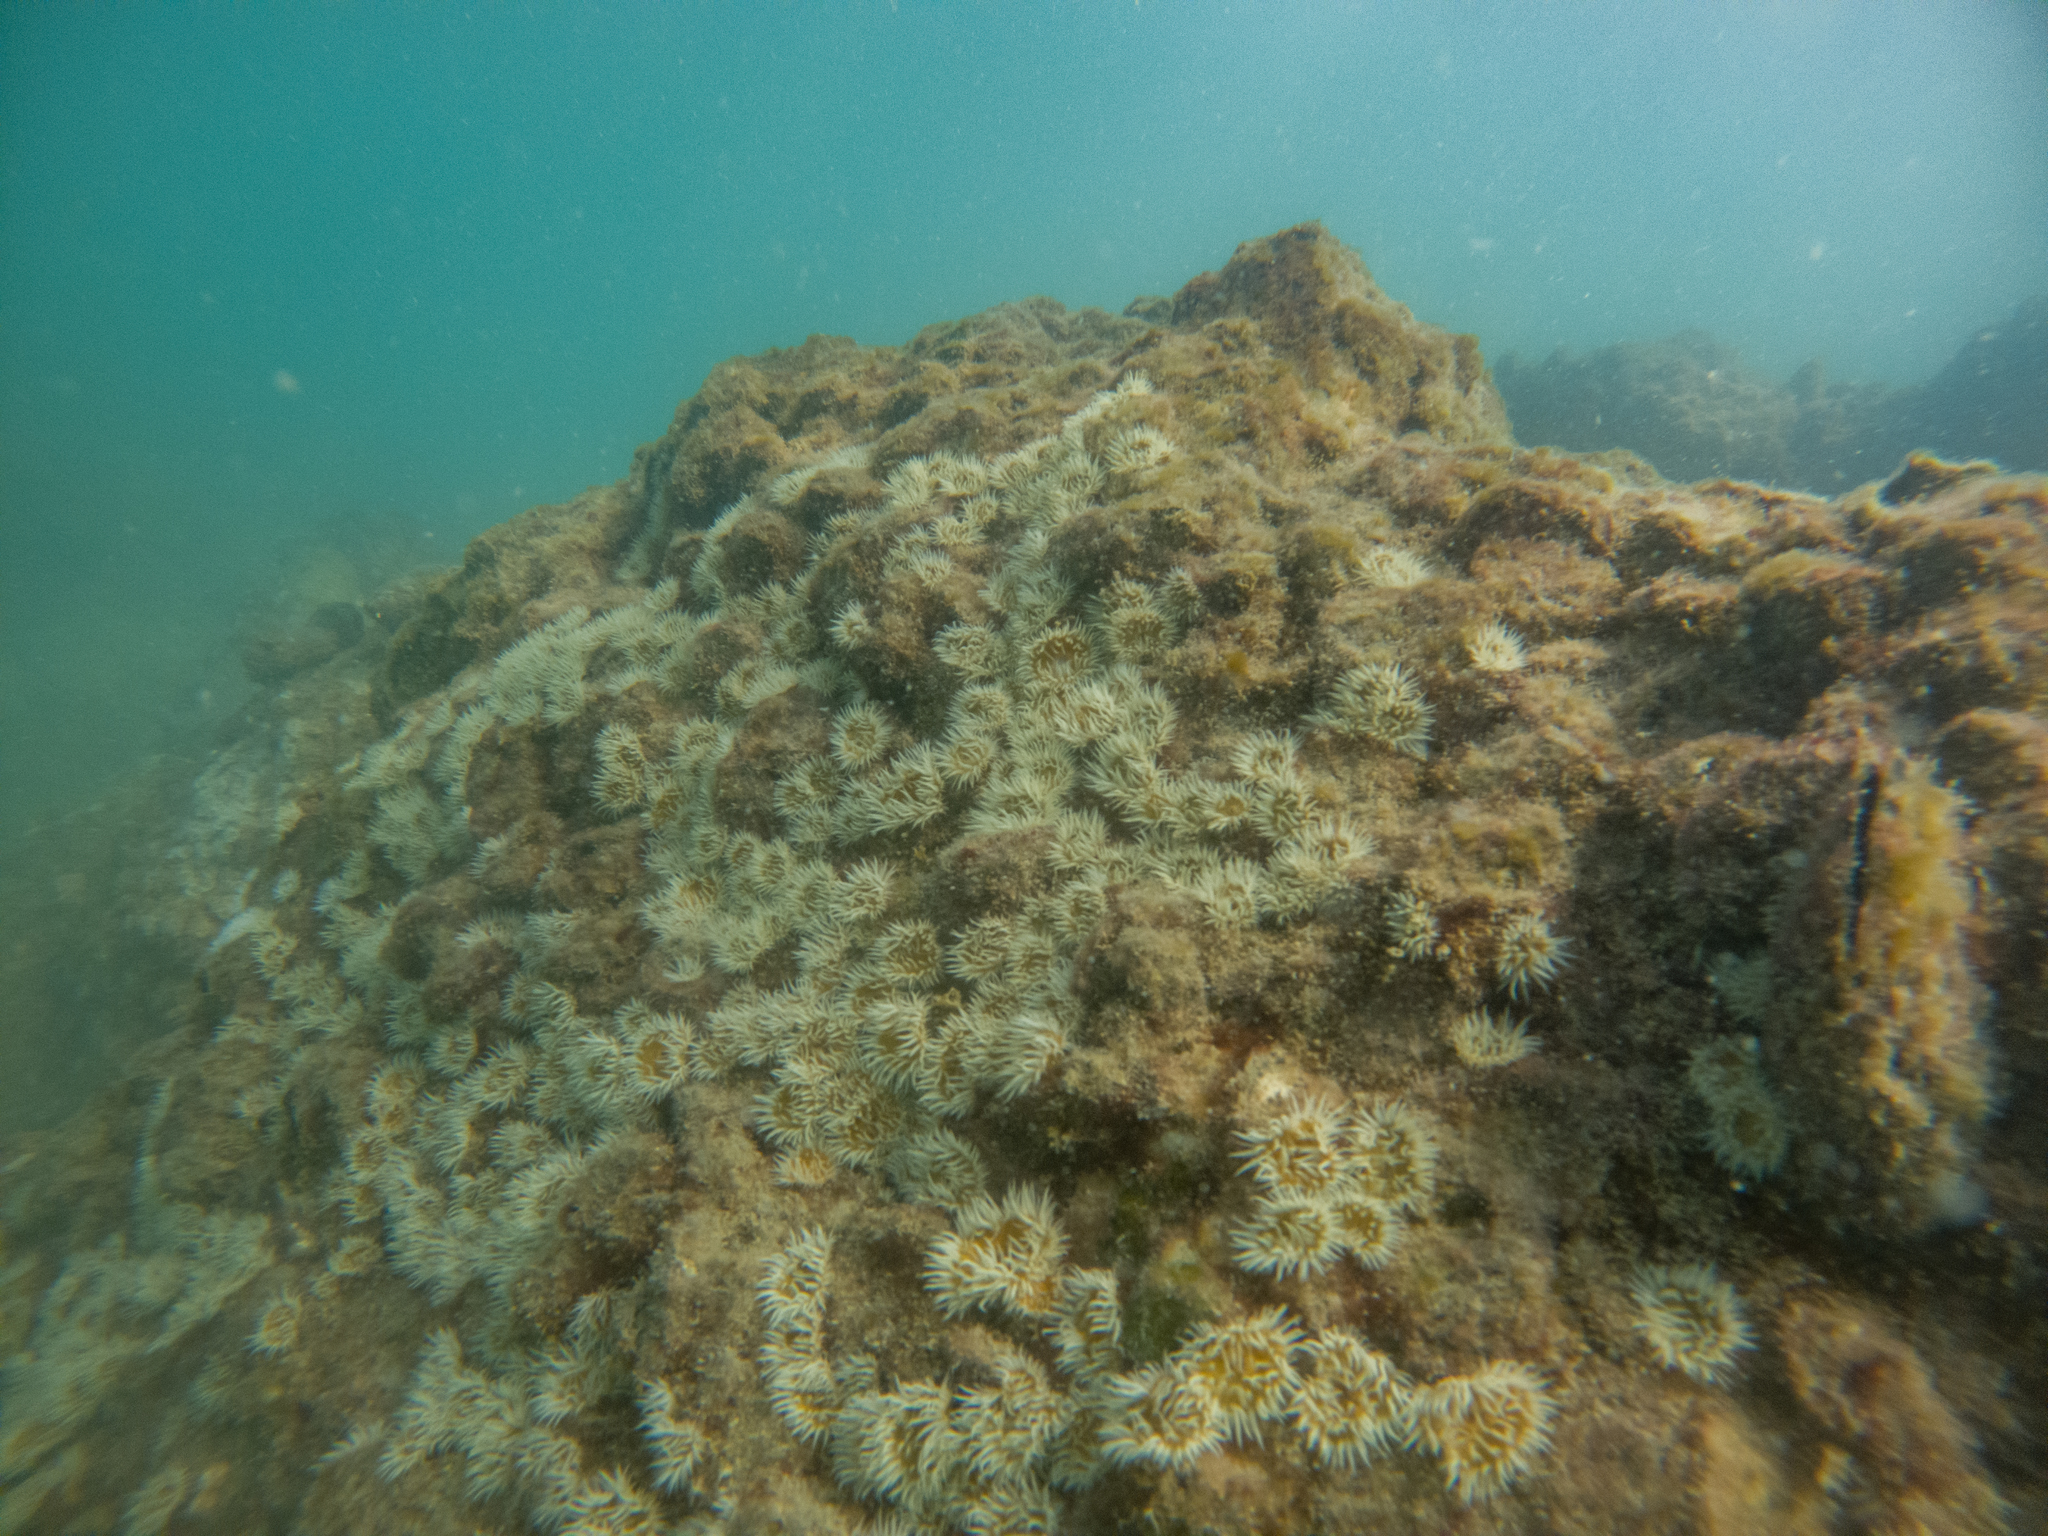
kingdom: Animalia
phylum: Cnidaria
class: Anthozoa
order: Actiniaria
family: Sagartiidae
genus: Anthothoe
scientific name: Anthothoe albocincta
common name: Orange striped anemone
